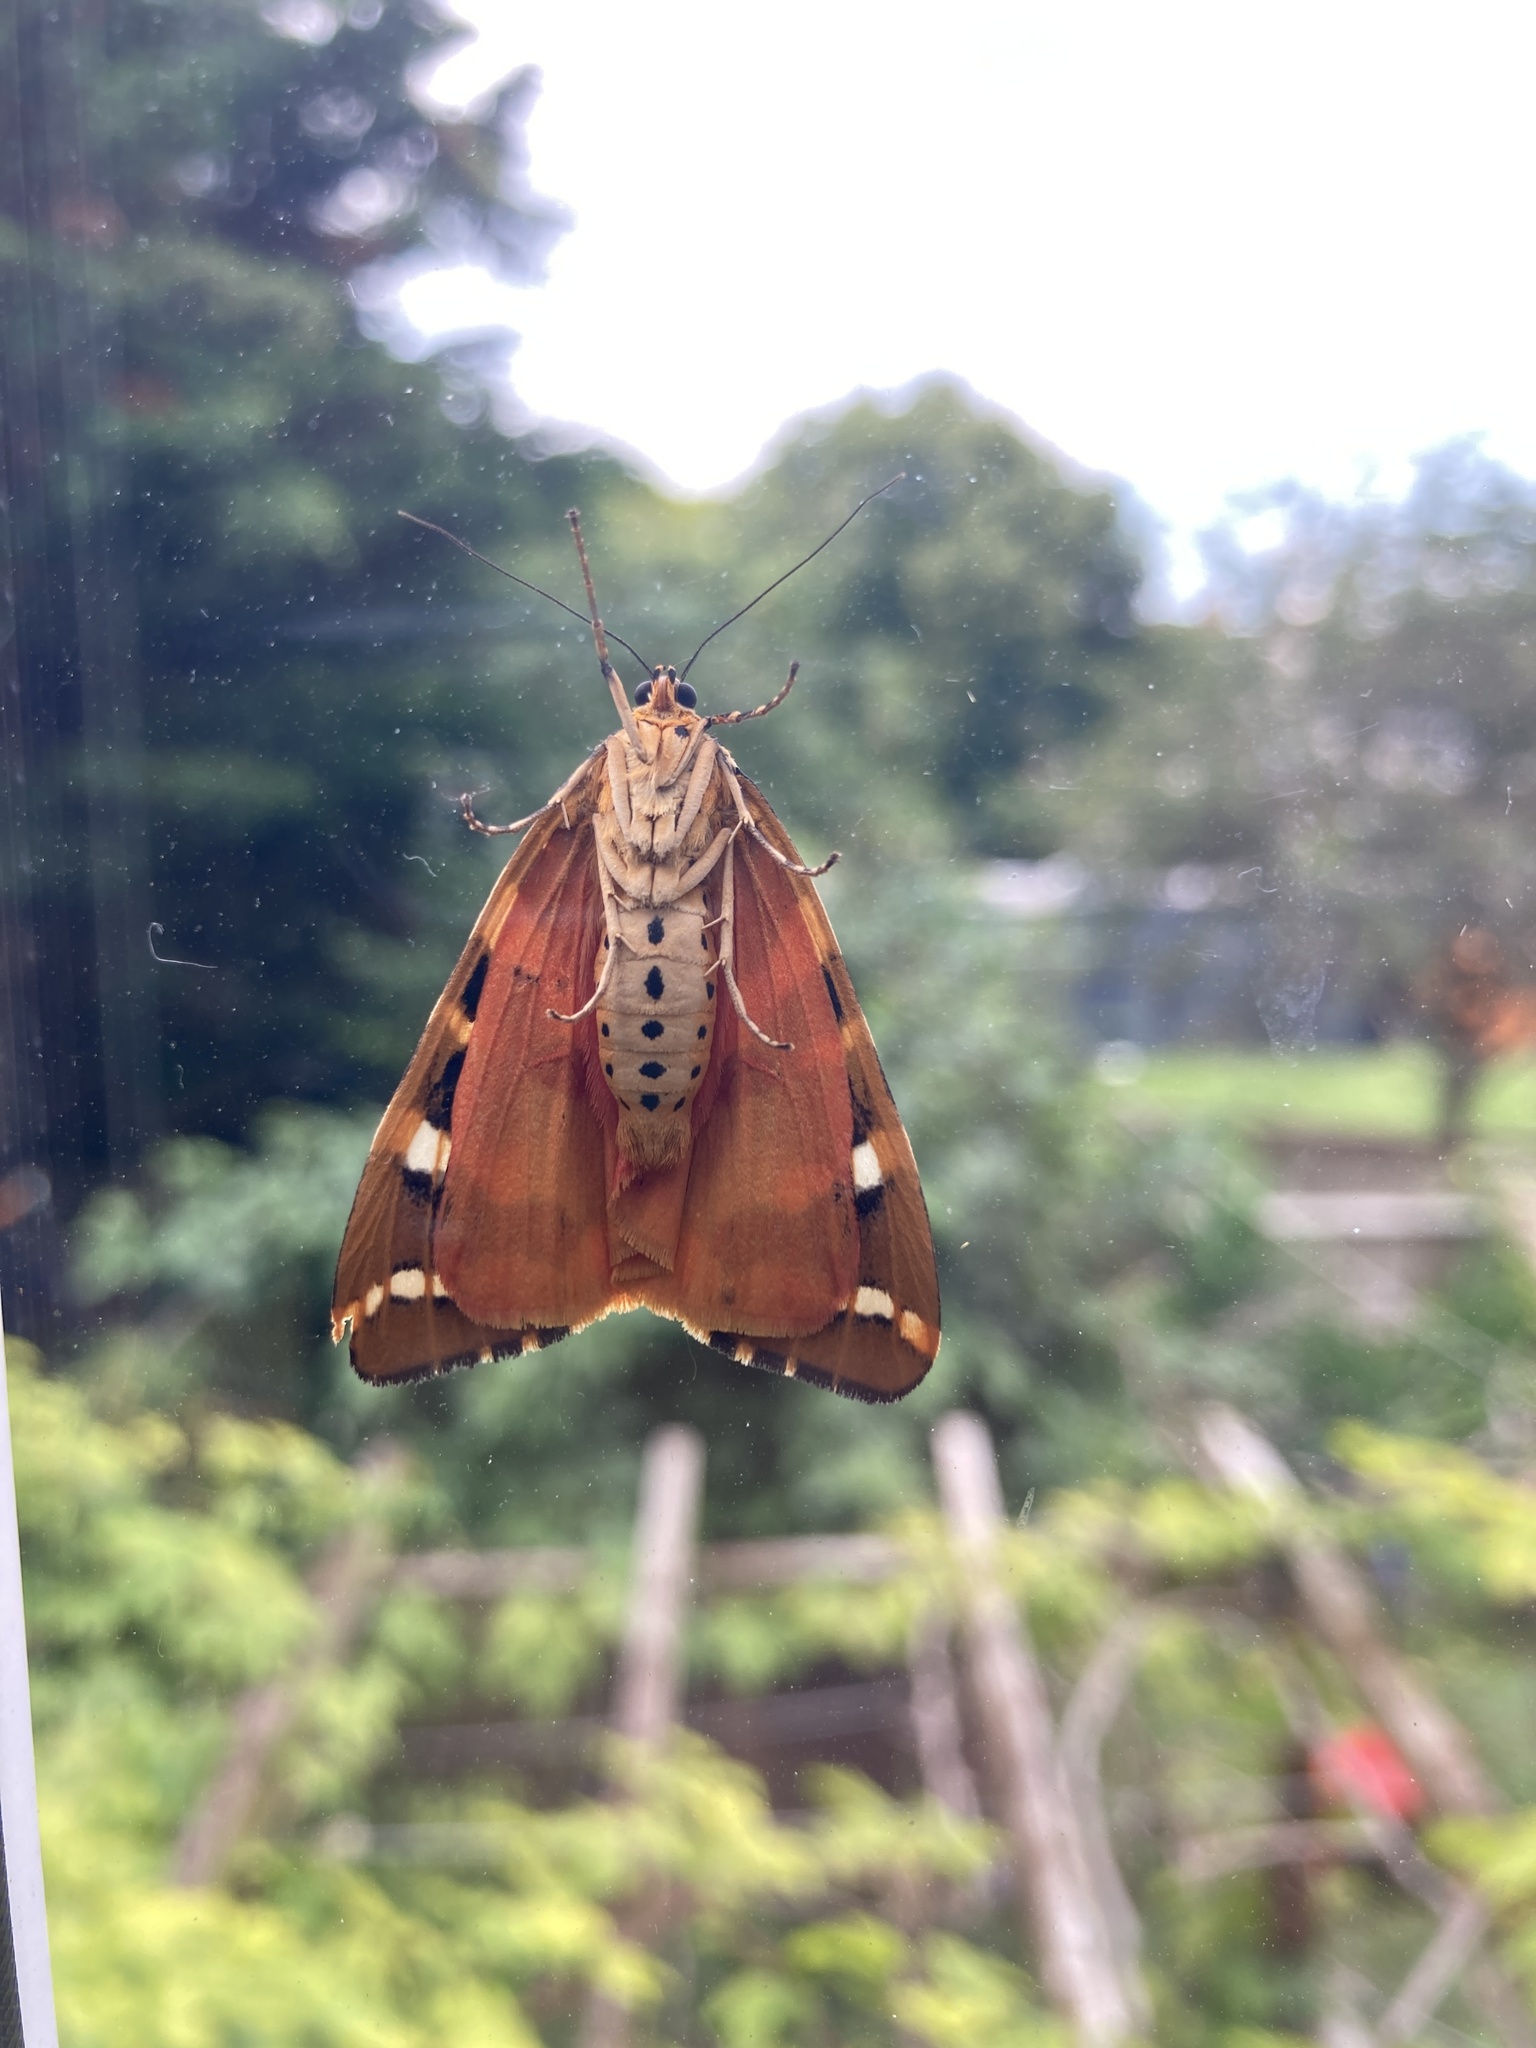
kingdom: Animalia
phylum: Arthropoda
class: Insecta
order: Lepidoptera
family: Erebidae
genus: Euplagia
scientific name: Euplagia quadripunctaria
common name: Jersey tiger
